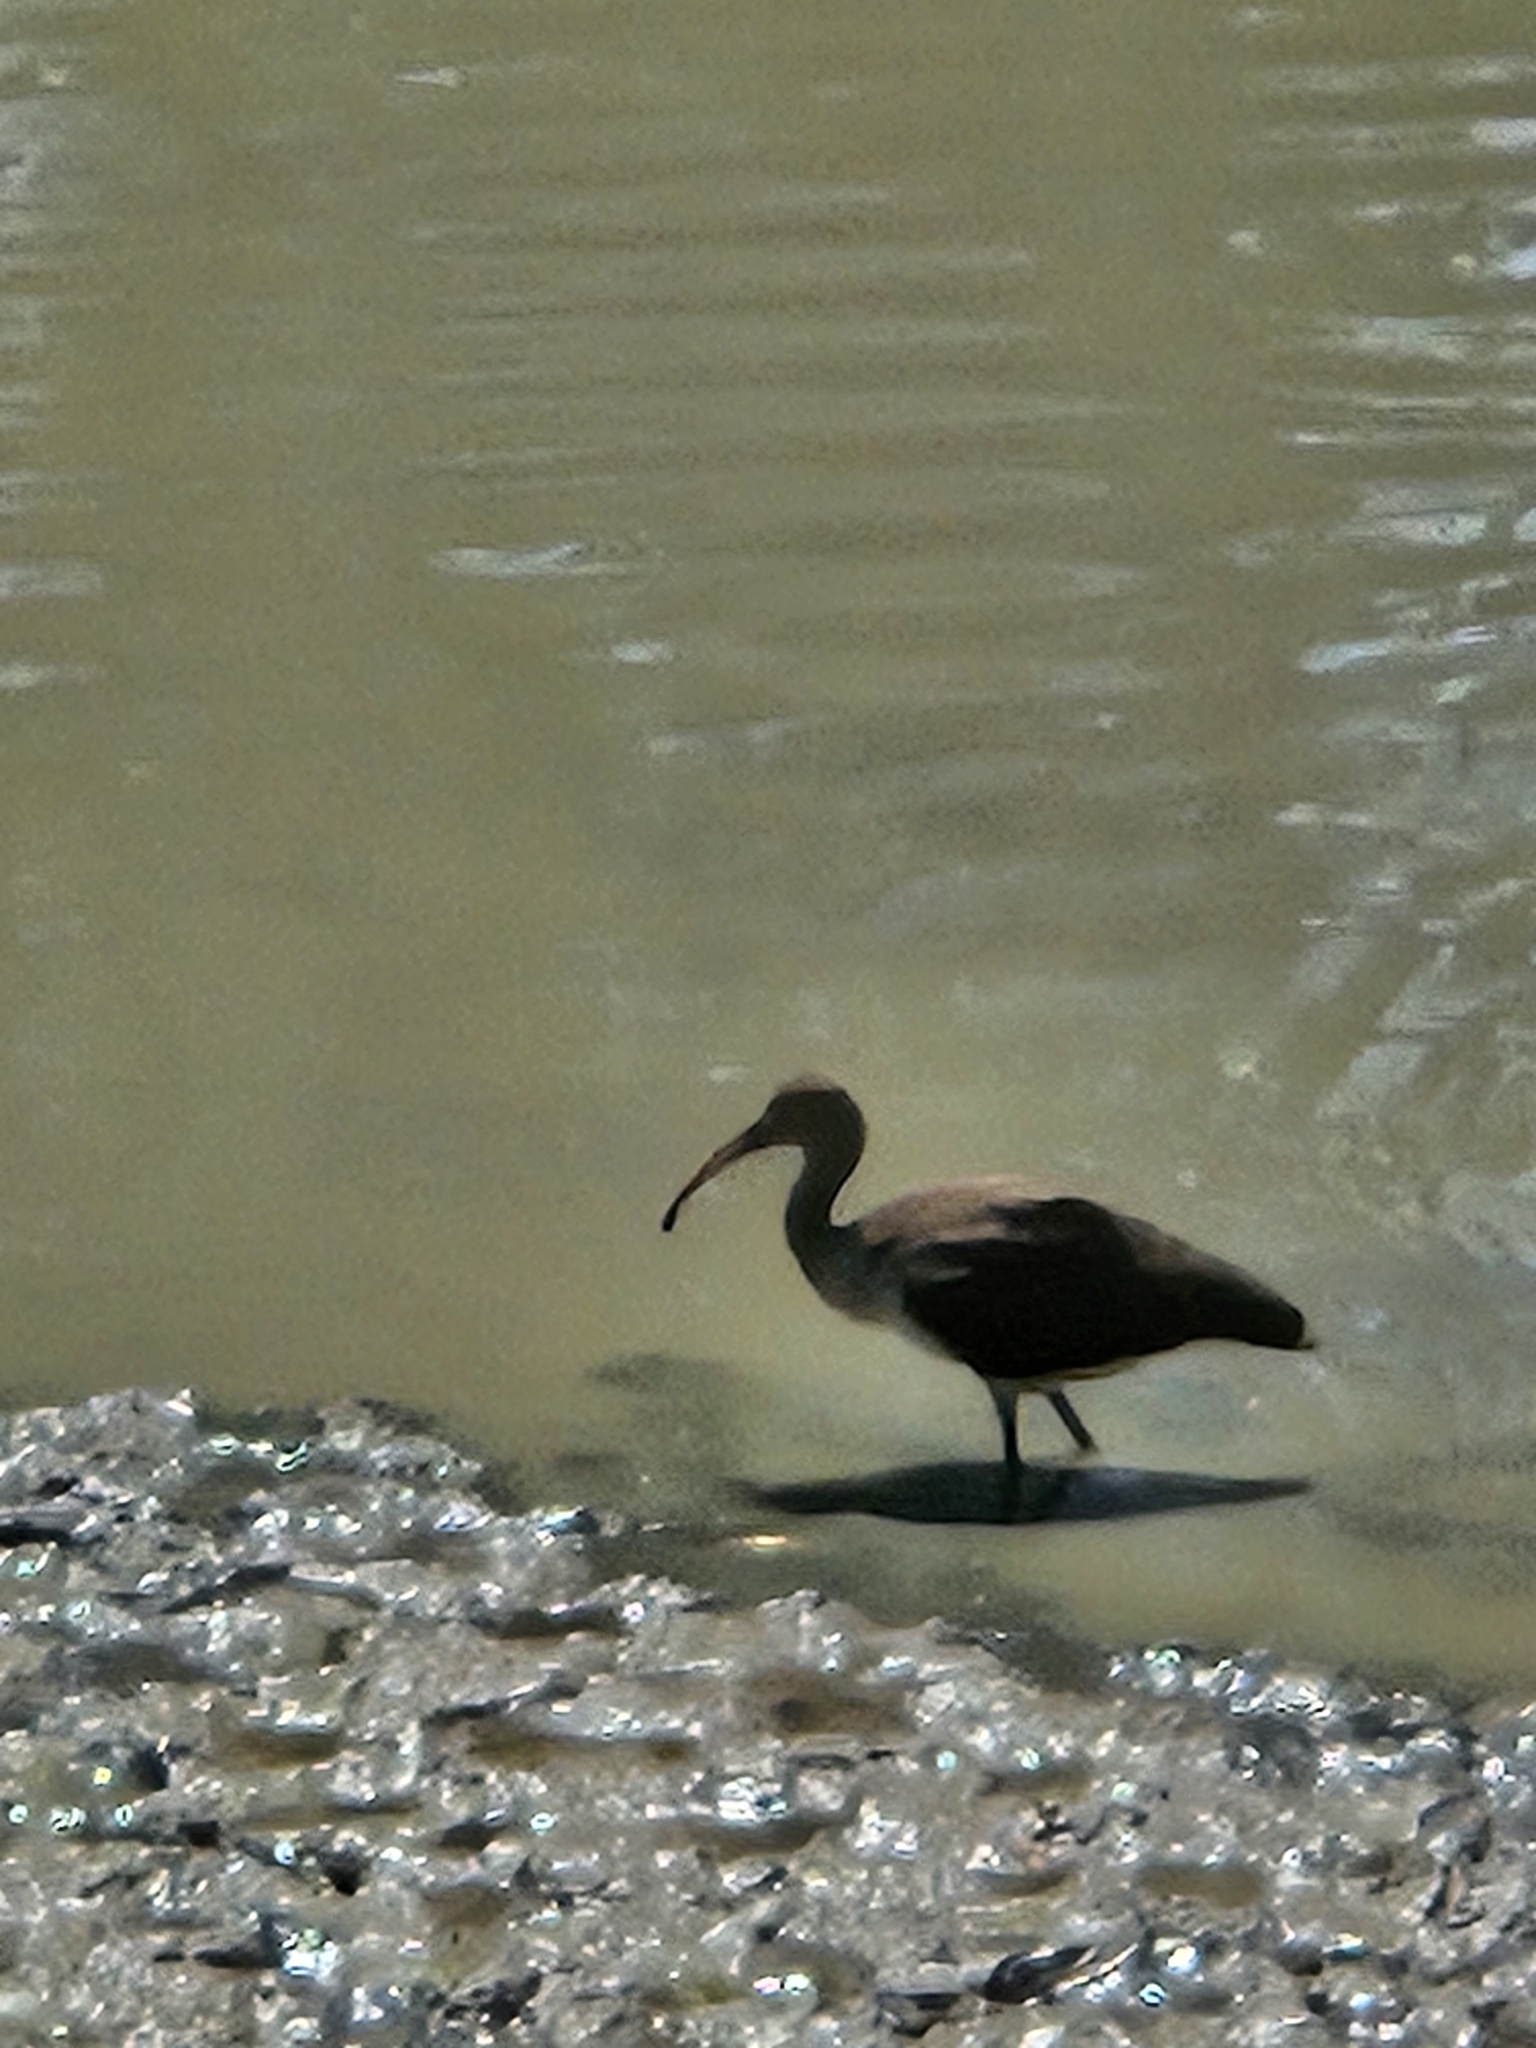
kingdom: Animalia
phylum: Chordata
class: Aves
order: Pelecaniformes
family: Threskiornithidae
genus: Eudocimus
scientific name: Eudocimus albus
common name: White ibis
